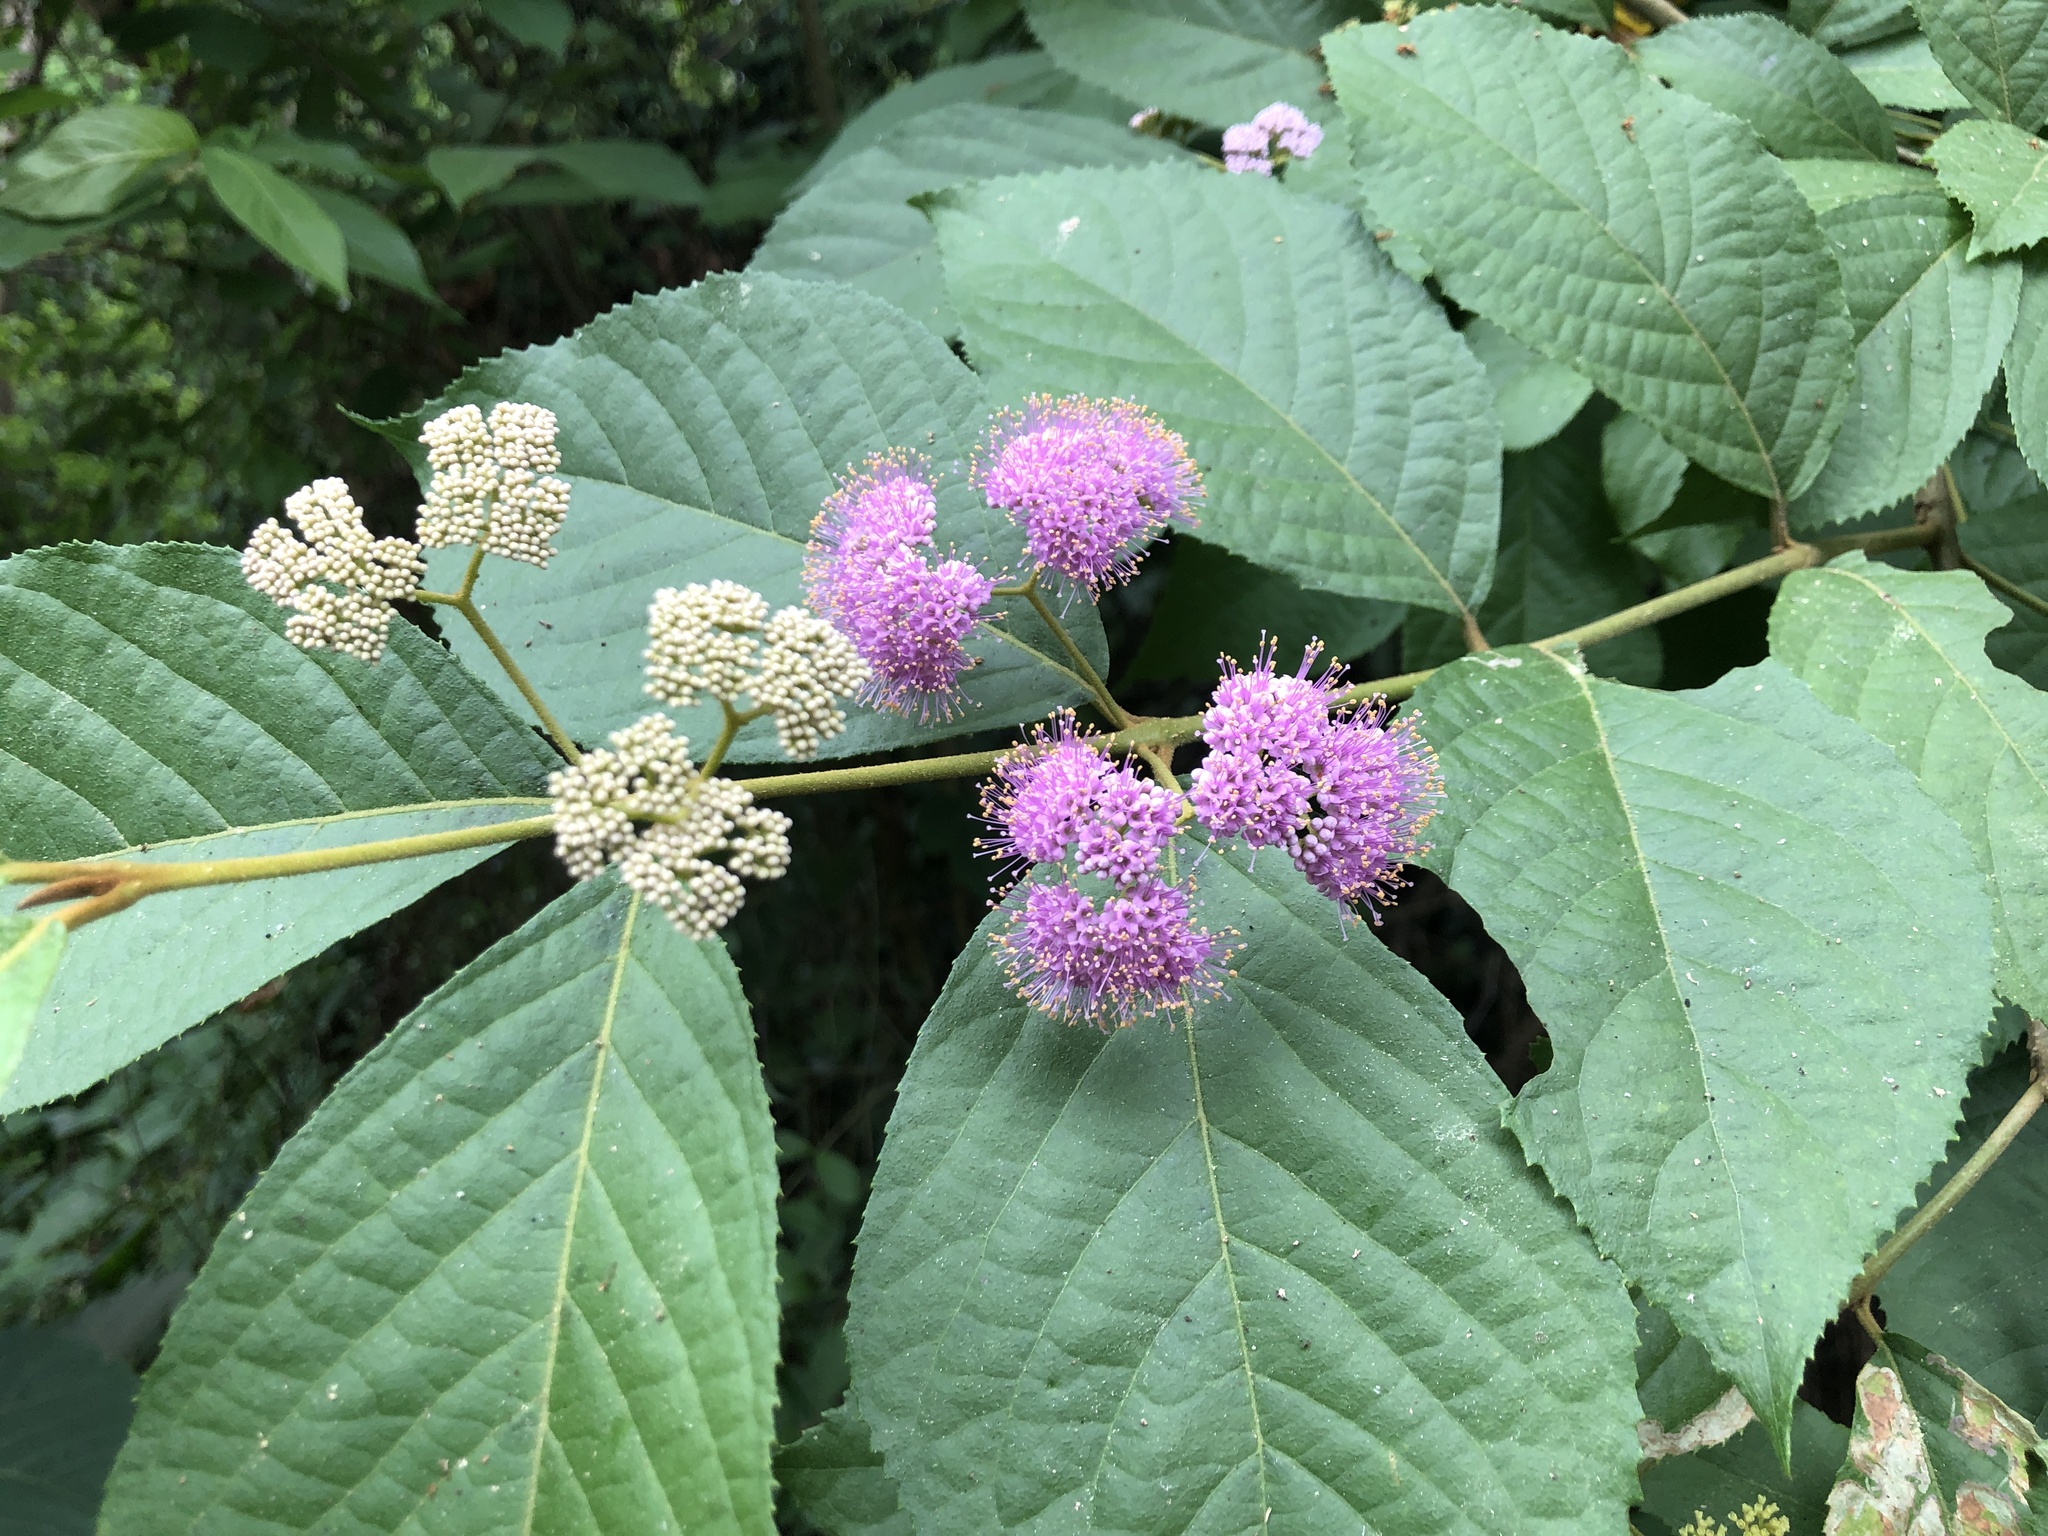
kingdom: Plantae
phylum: Tracheophyta
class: Magnoliopsida
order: Lamiales
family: Lamiaceae
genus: Callicarpa
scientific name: Callicarpa pedunculata
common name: Velvetleaf
